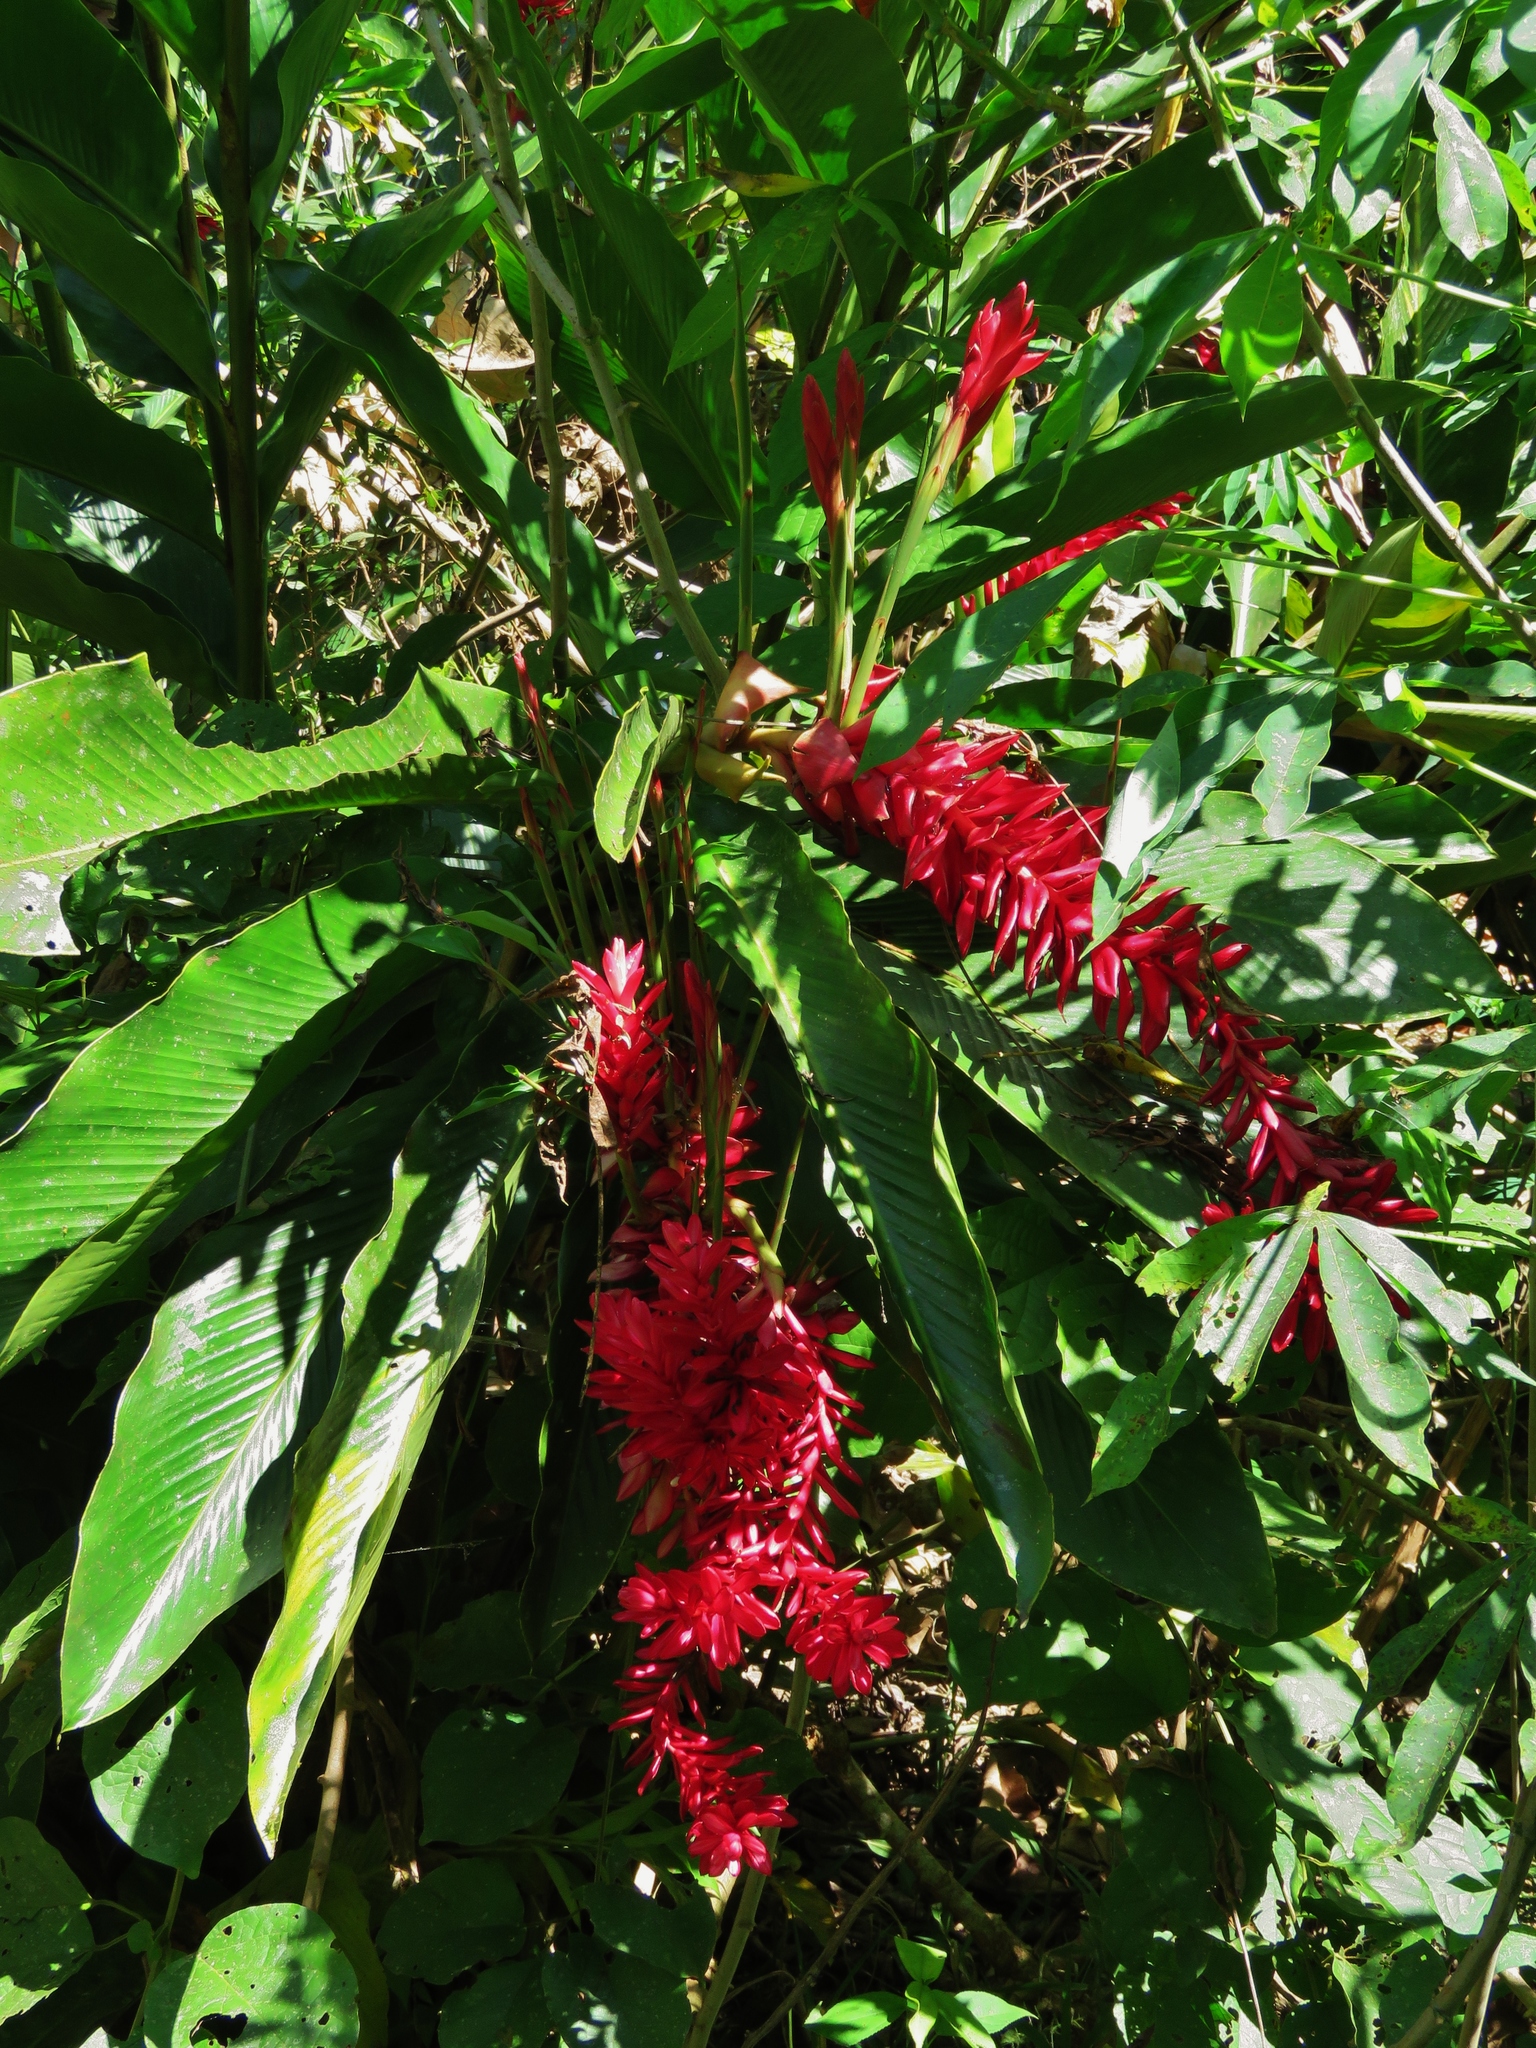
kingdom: Plantae
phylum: Tracheophyta
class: Liliopsida
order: Zingiberales
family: Zingiberaceae
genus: Alpinia
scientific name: Alpinia purpurata
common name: Red ginger
